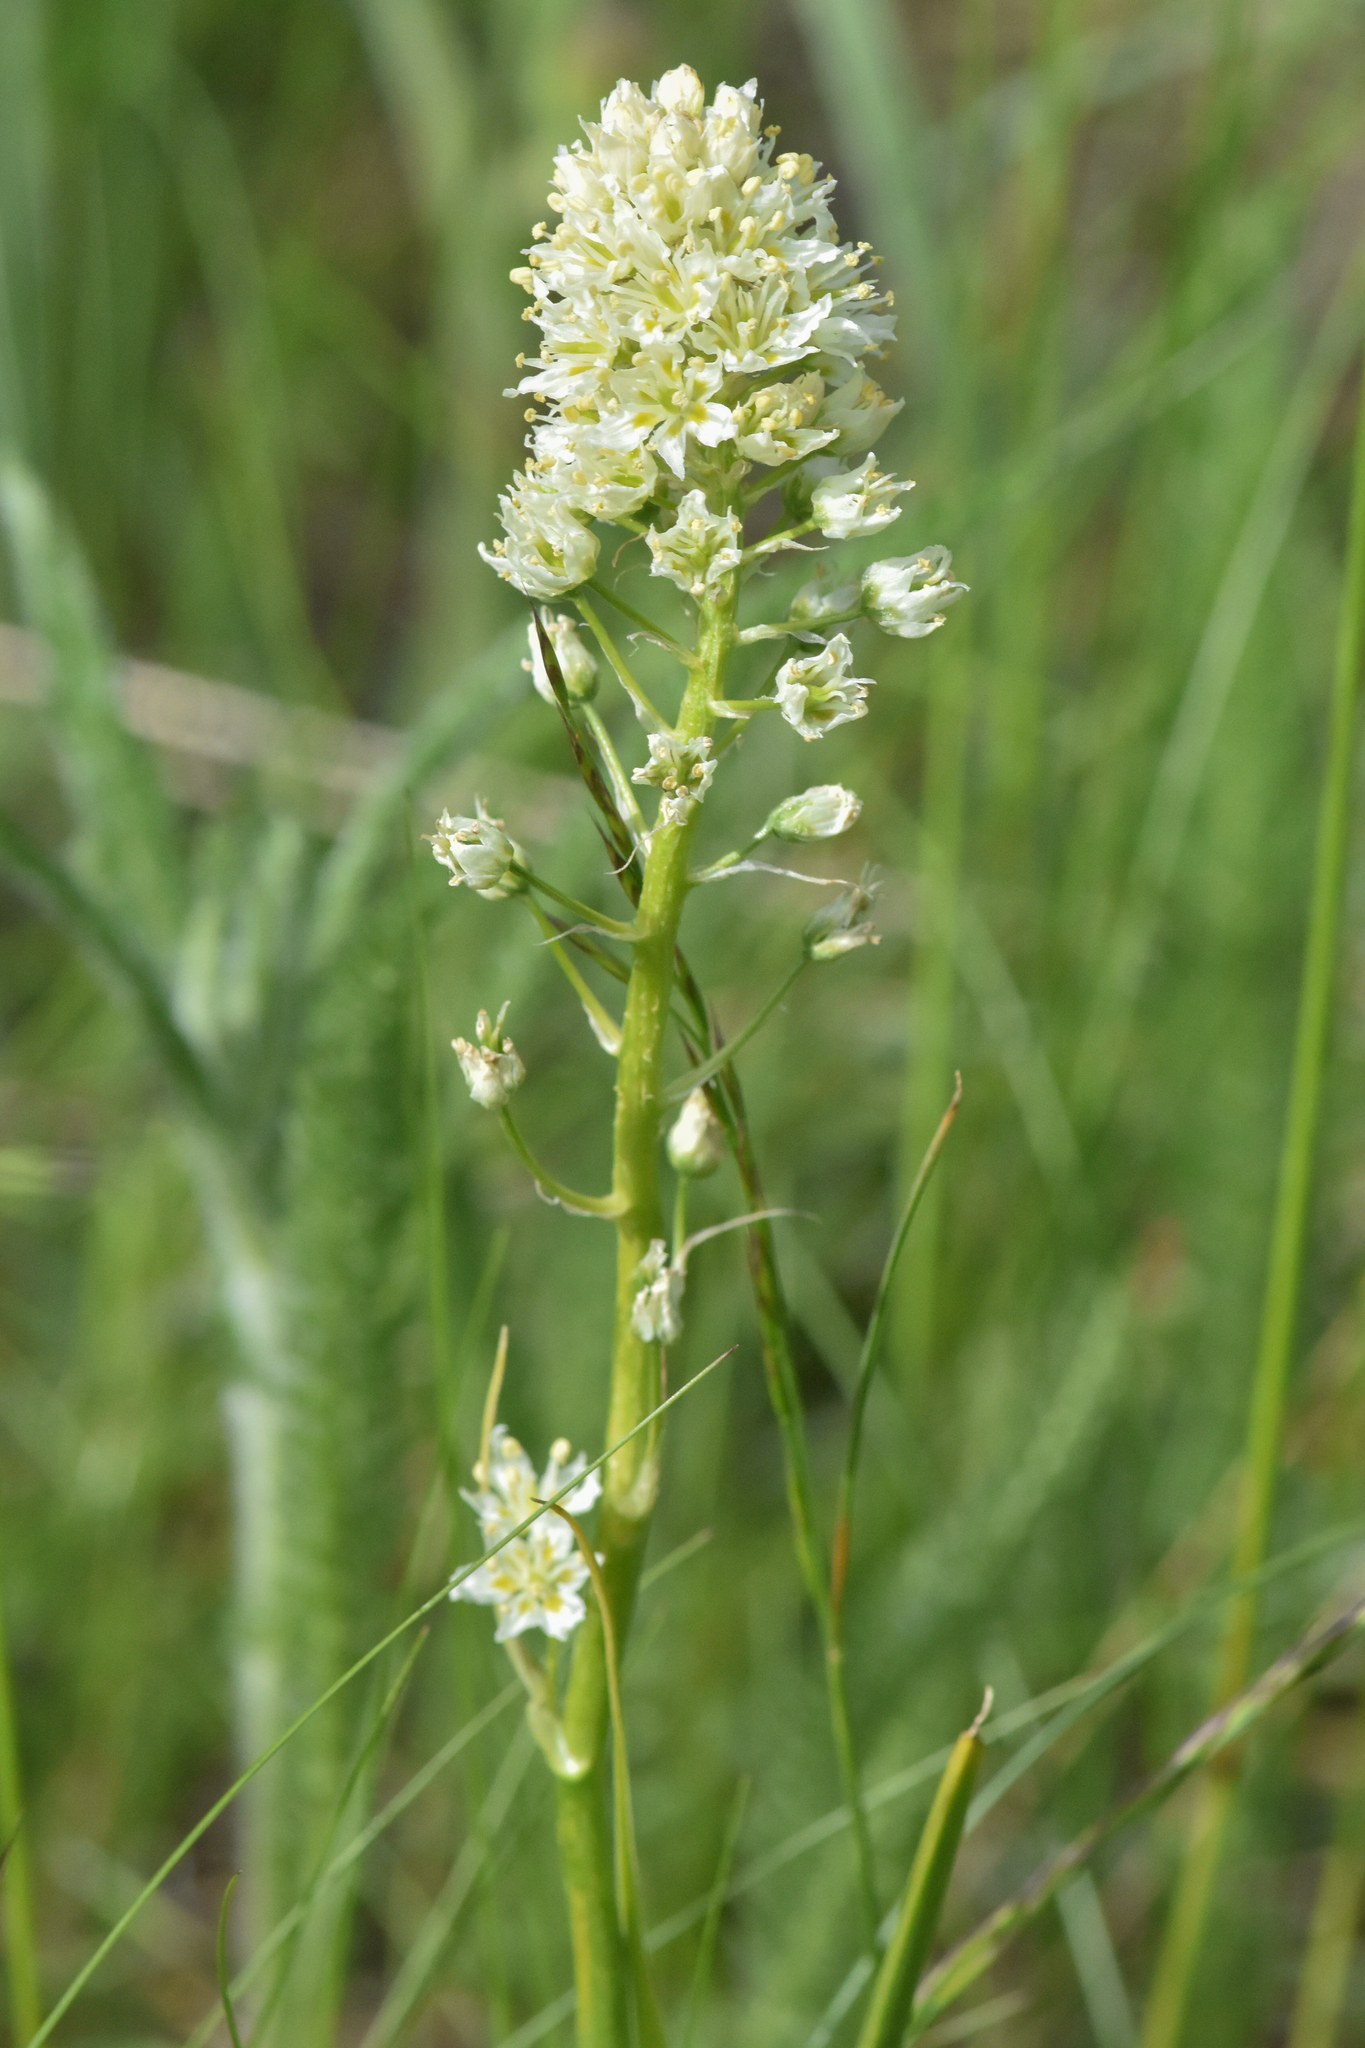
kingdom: Plantae
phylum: Tracheophyta
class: Liliopsida
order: Liliales
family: Melanthiaceae
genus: Toxicoscordion
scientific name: Toxicoscordion venenosum
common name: Meadow death camas
